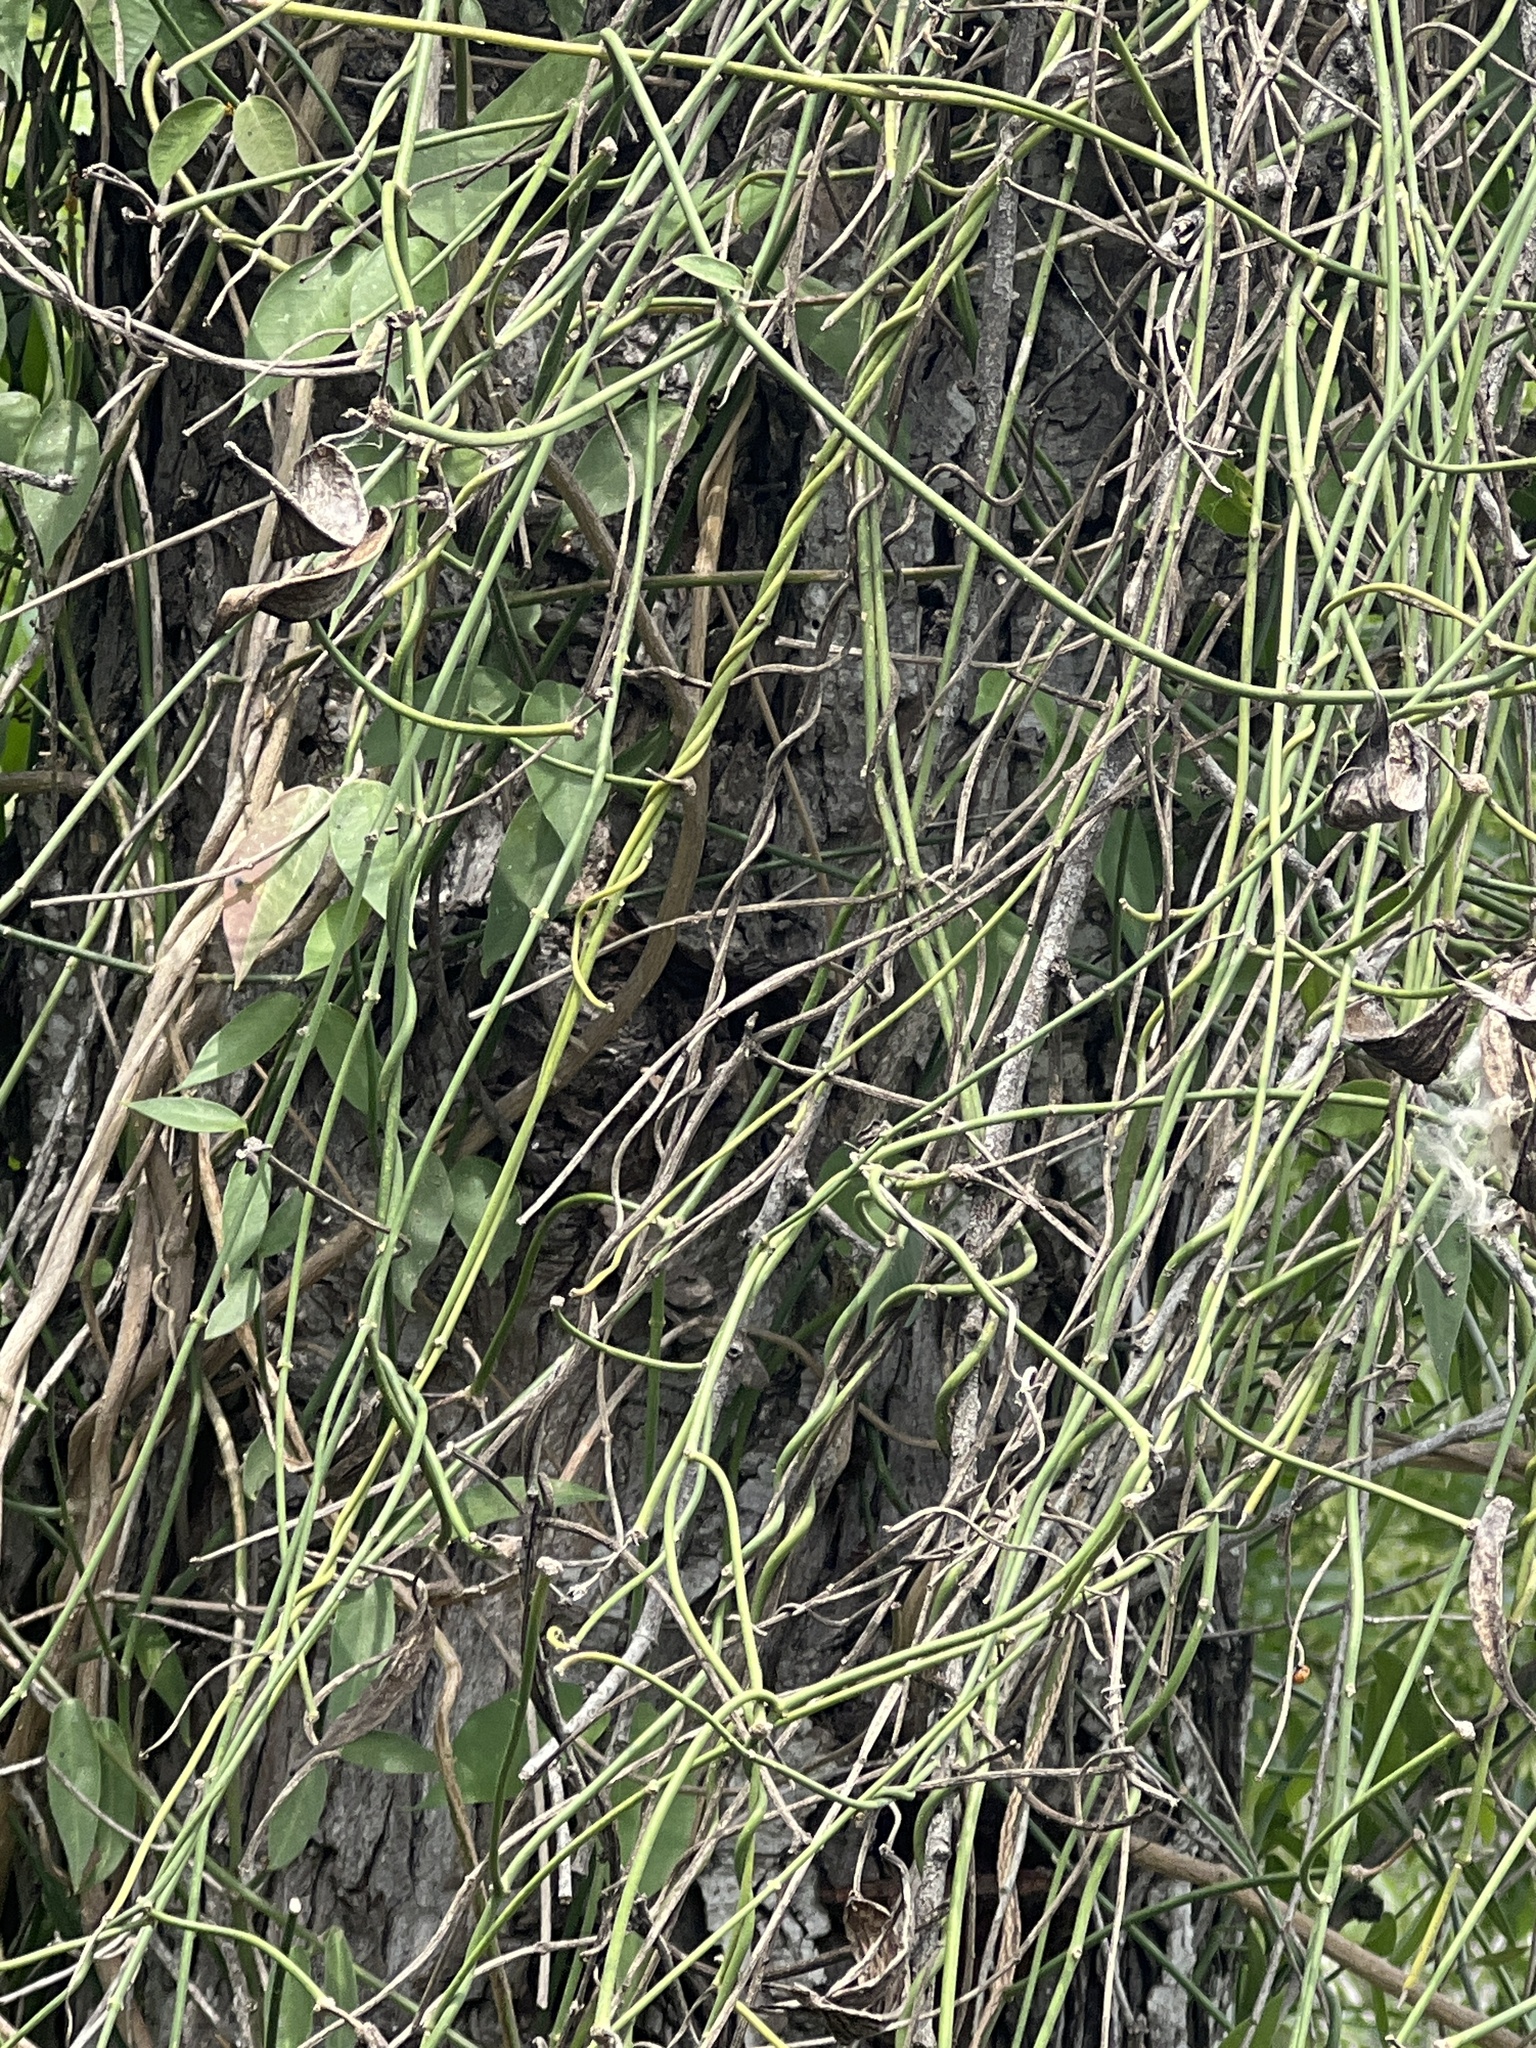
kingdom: Plantae
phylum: Tracheophyta
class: Magnoliopsida
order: Gentianales
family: Apocynaceae
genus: Funastrum
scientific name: Funastrum clausum
